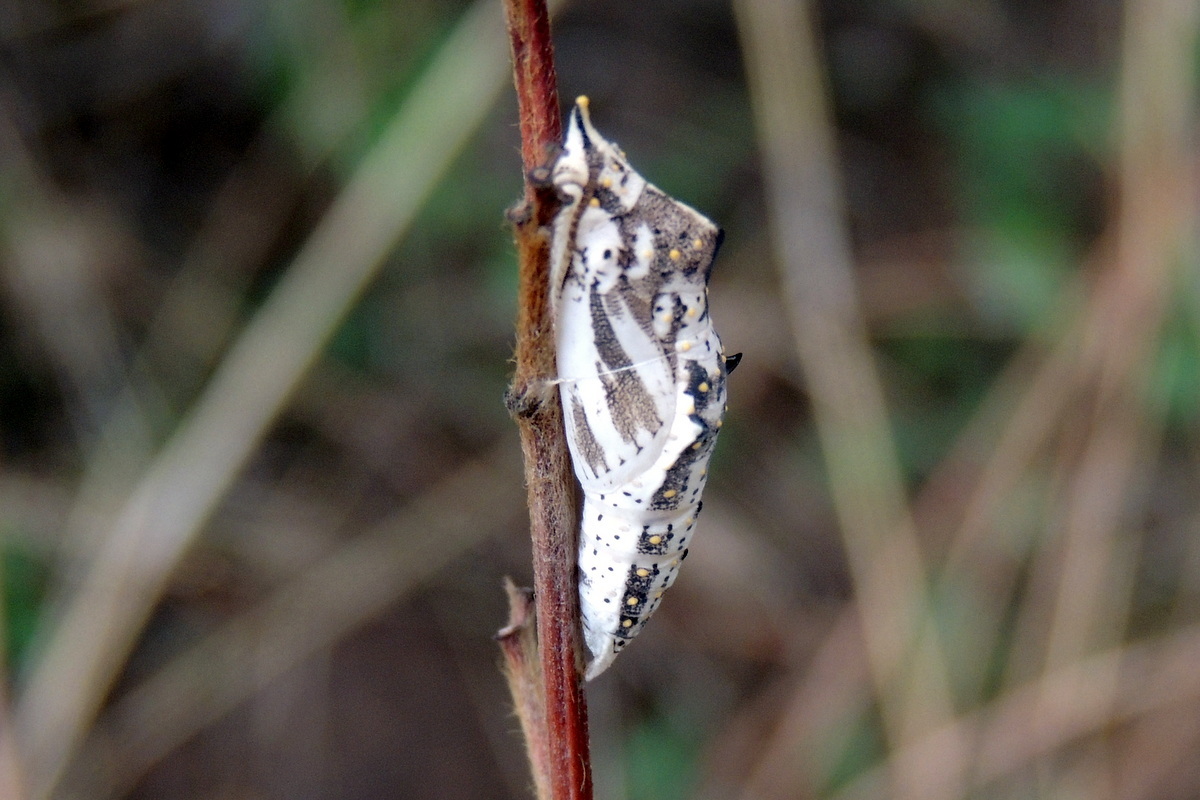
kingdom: Animalia
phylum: Arthropoda
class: Insecta
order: Lepidoptera
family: Pieridae
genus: Belenois
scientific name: Belenois aurota
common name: Brown-veined white
